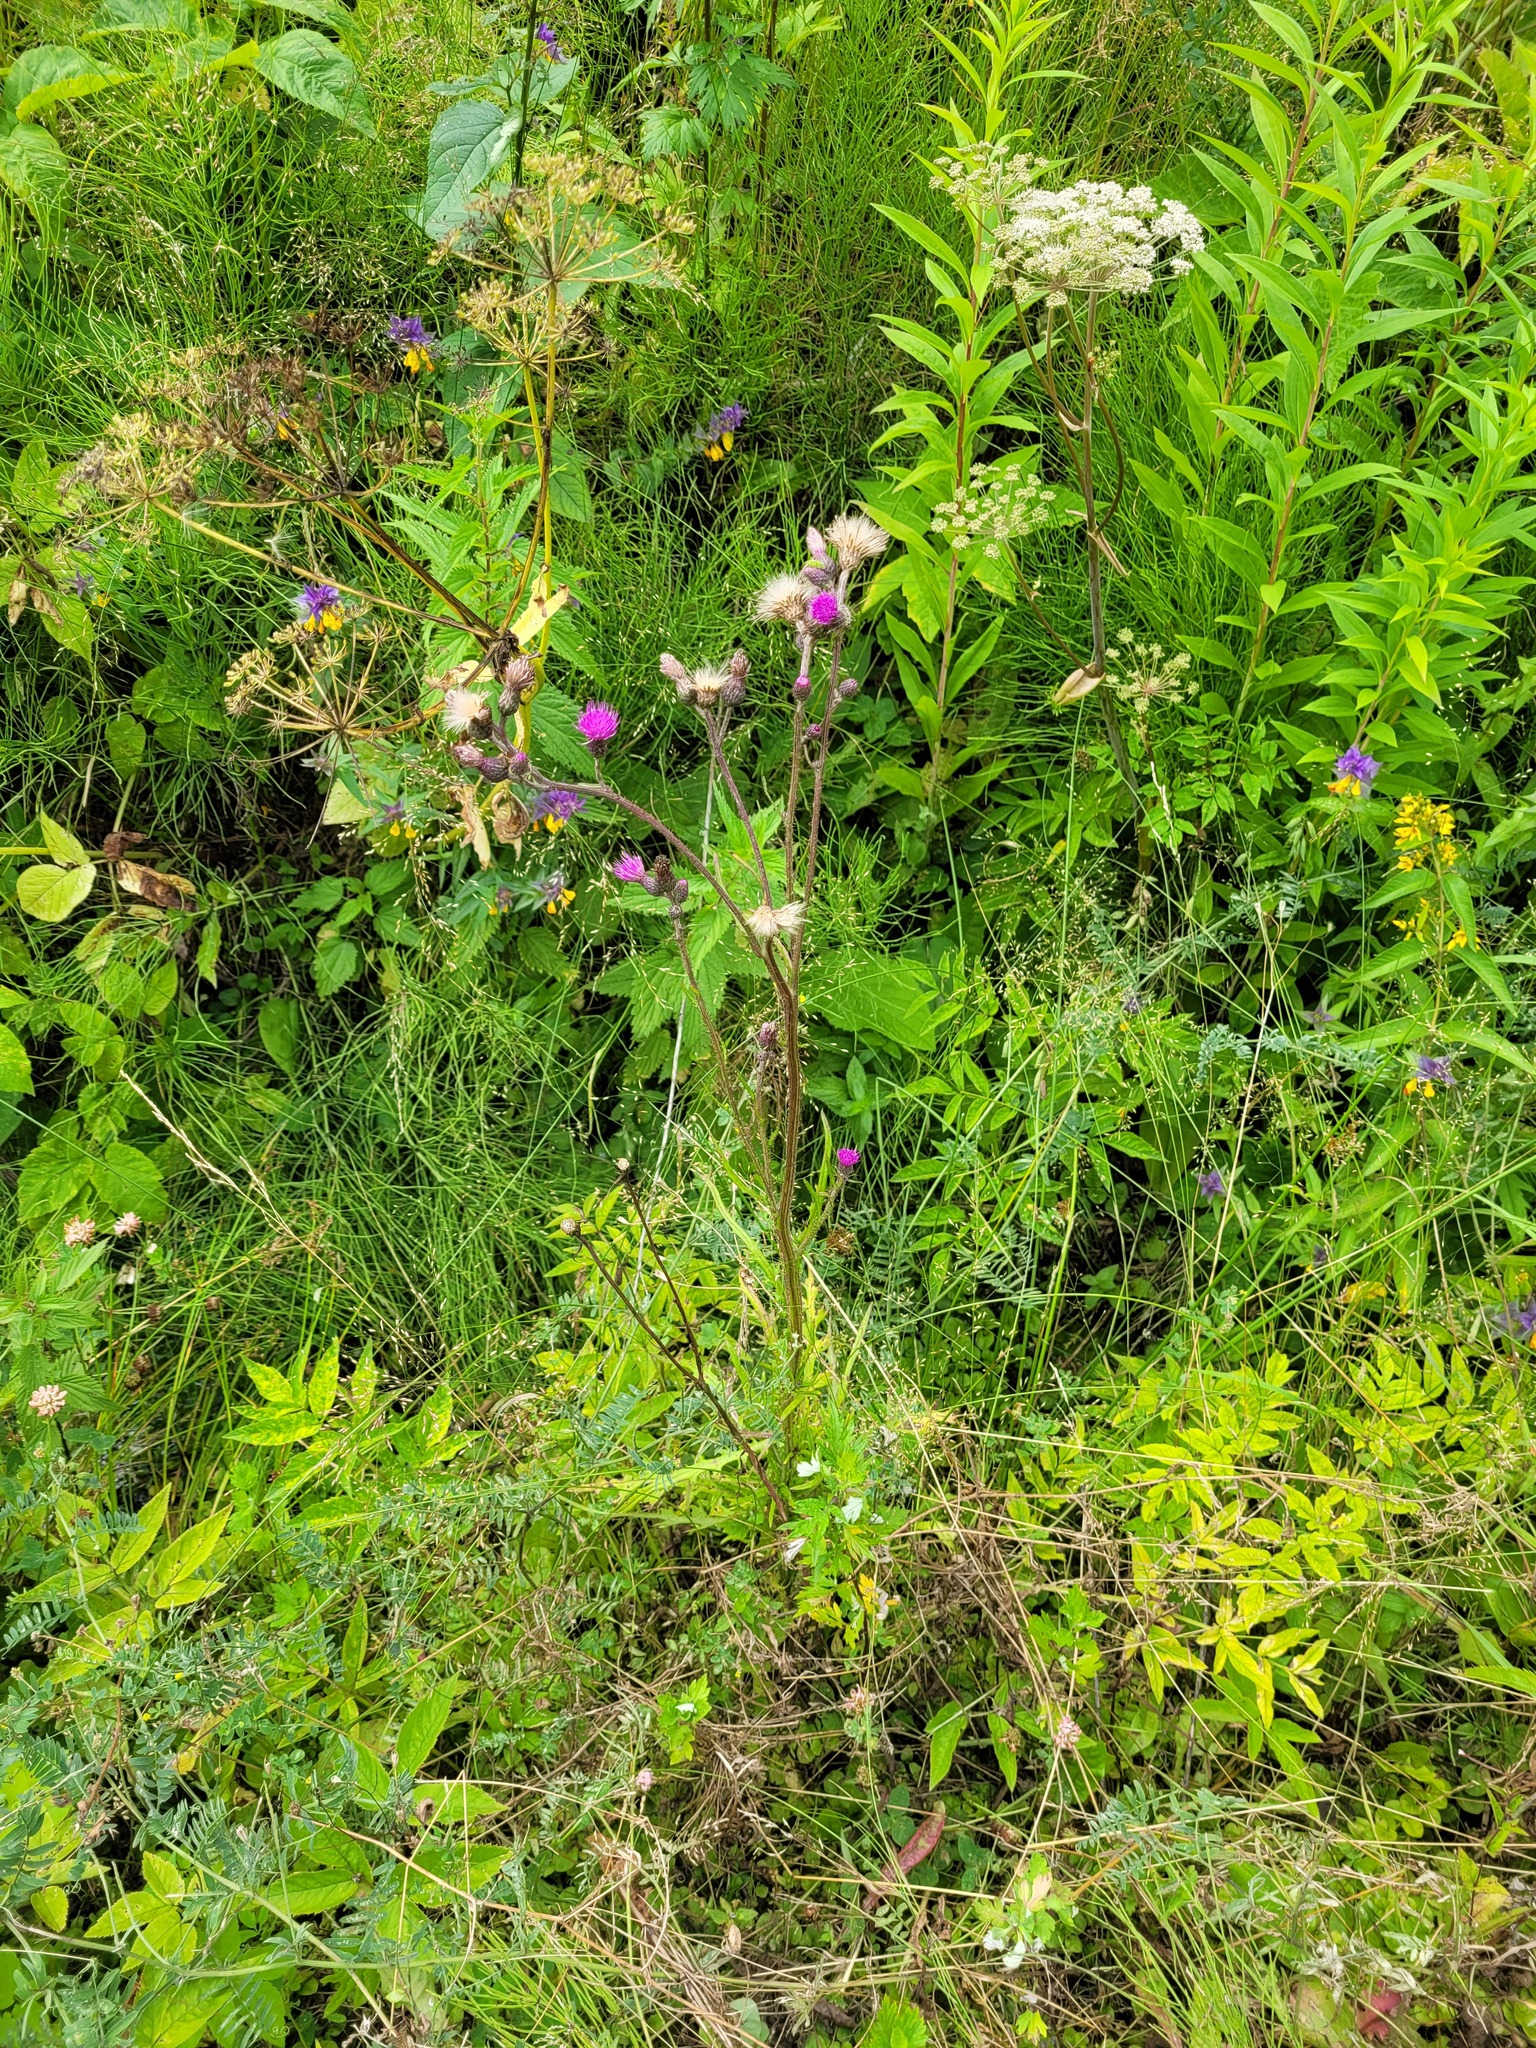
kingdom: Plantae
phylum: Tracheophyta
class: Magnoliopsida
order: Asterales
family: Asteraceae
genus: Cirsium
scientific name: Cirsium palustre
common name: Marsh thistle
